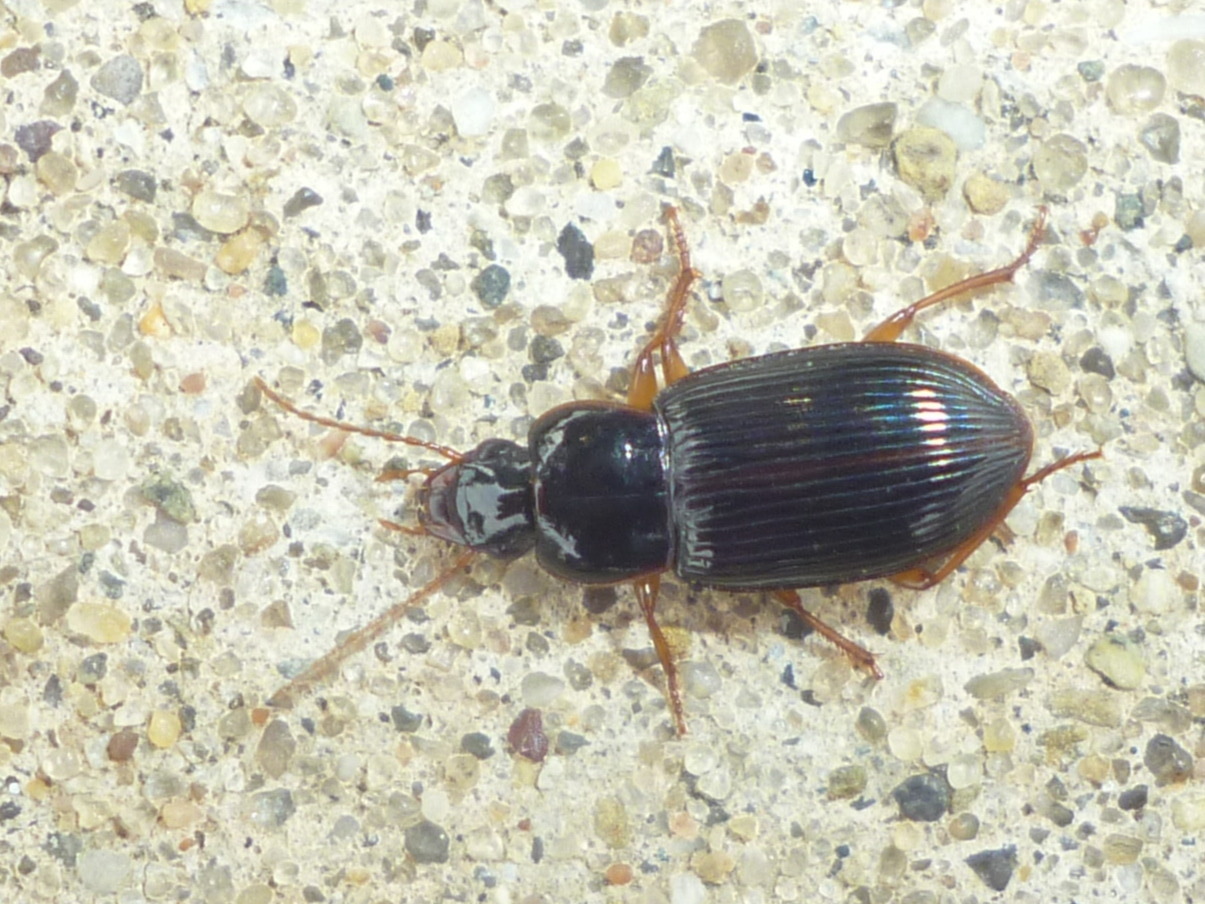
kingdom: Animalia
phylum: Arthropoda
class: Insecta
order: Coleoptera
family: Carabidae
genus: Trichotichnus
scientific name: Trichotichnus autumnalis
